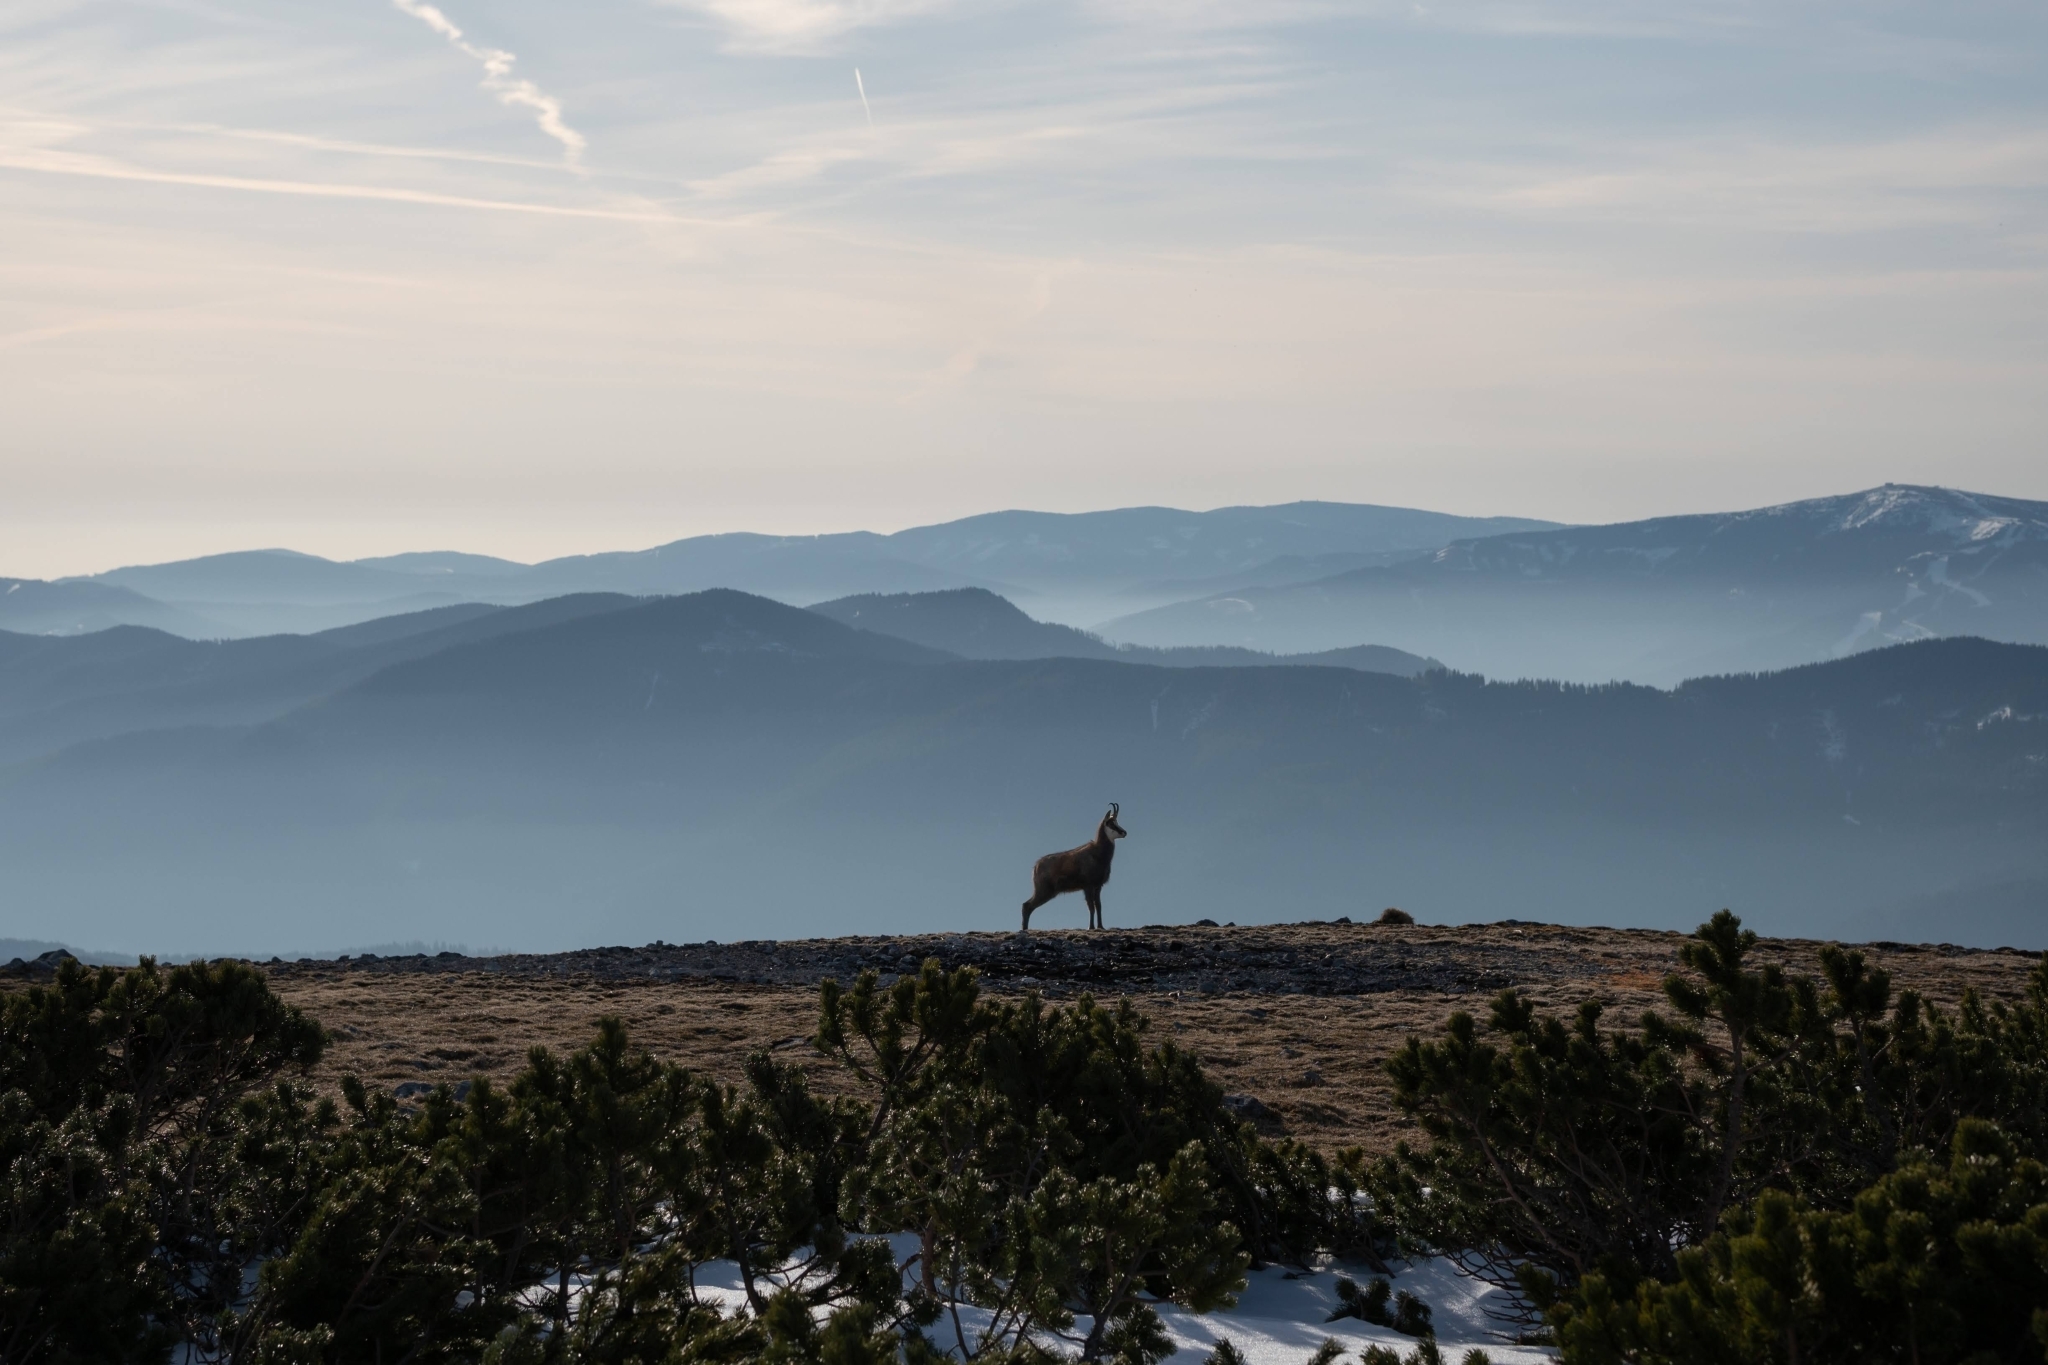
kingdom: Animalia
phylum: Chordata
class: Mammalia
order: Artiodactyla
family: Bovidae
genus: Rupicapra
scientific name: Rupicapra rupicapra
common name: Chamois
